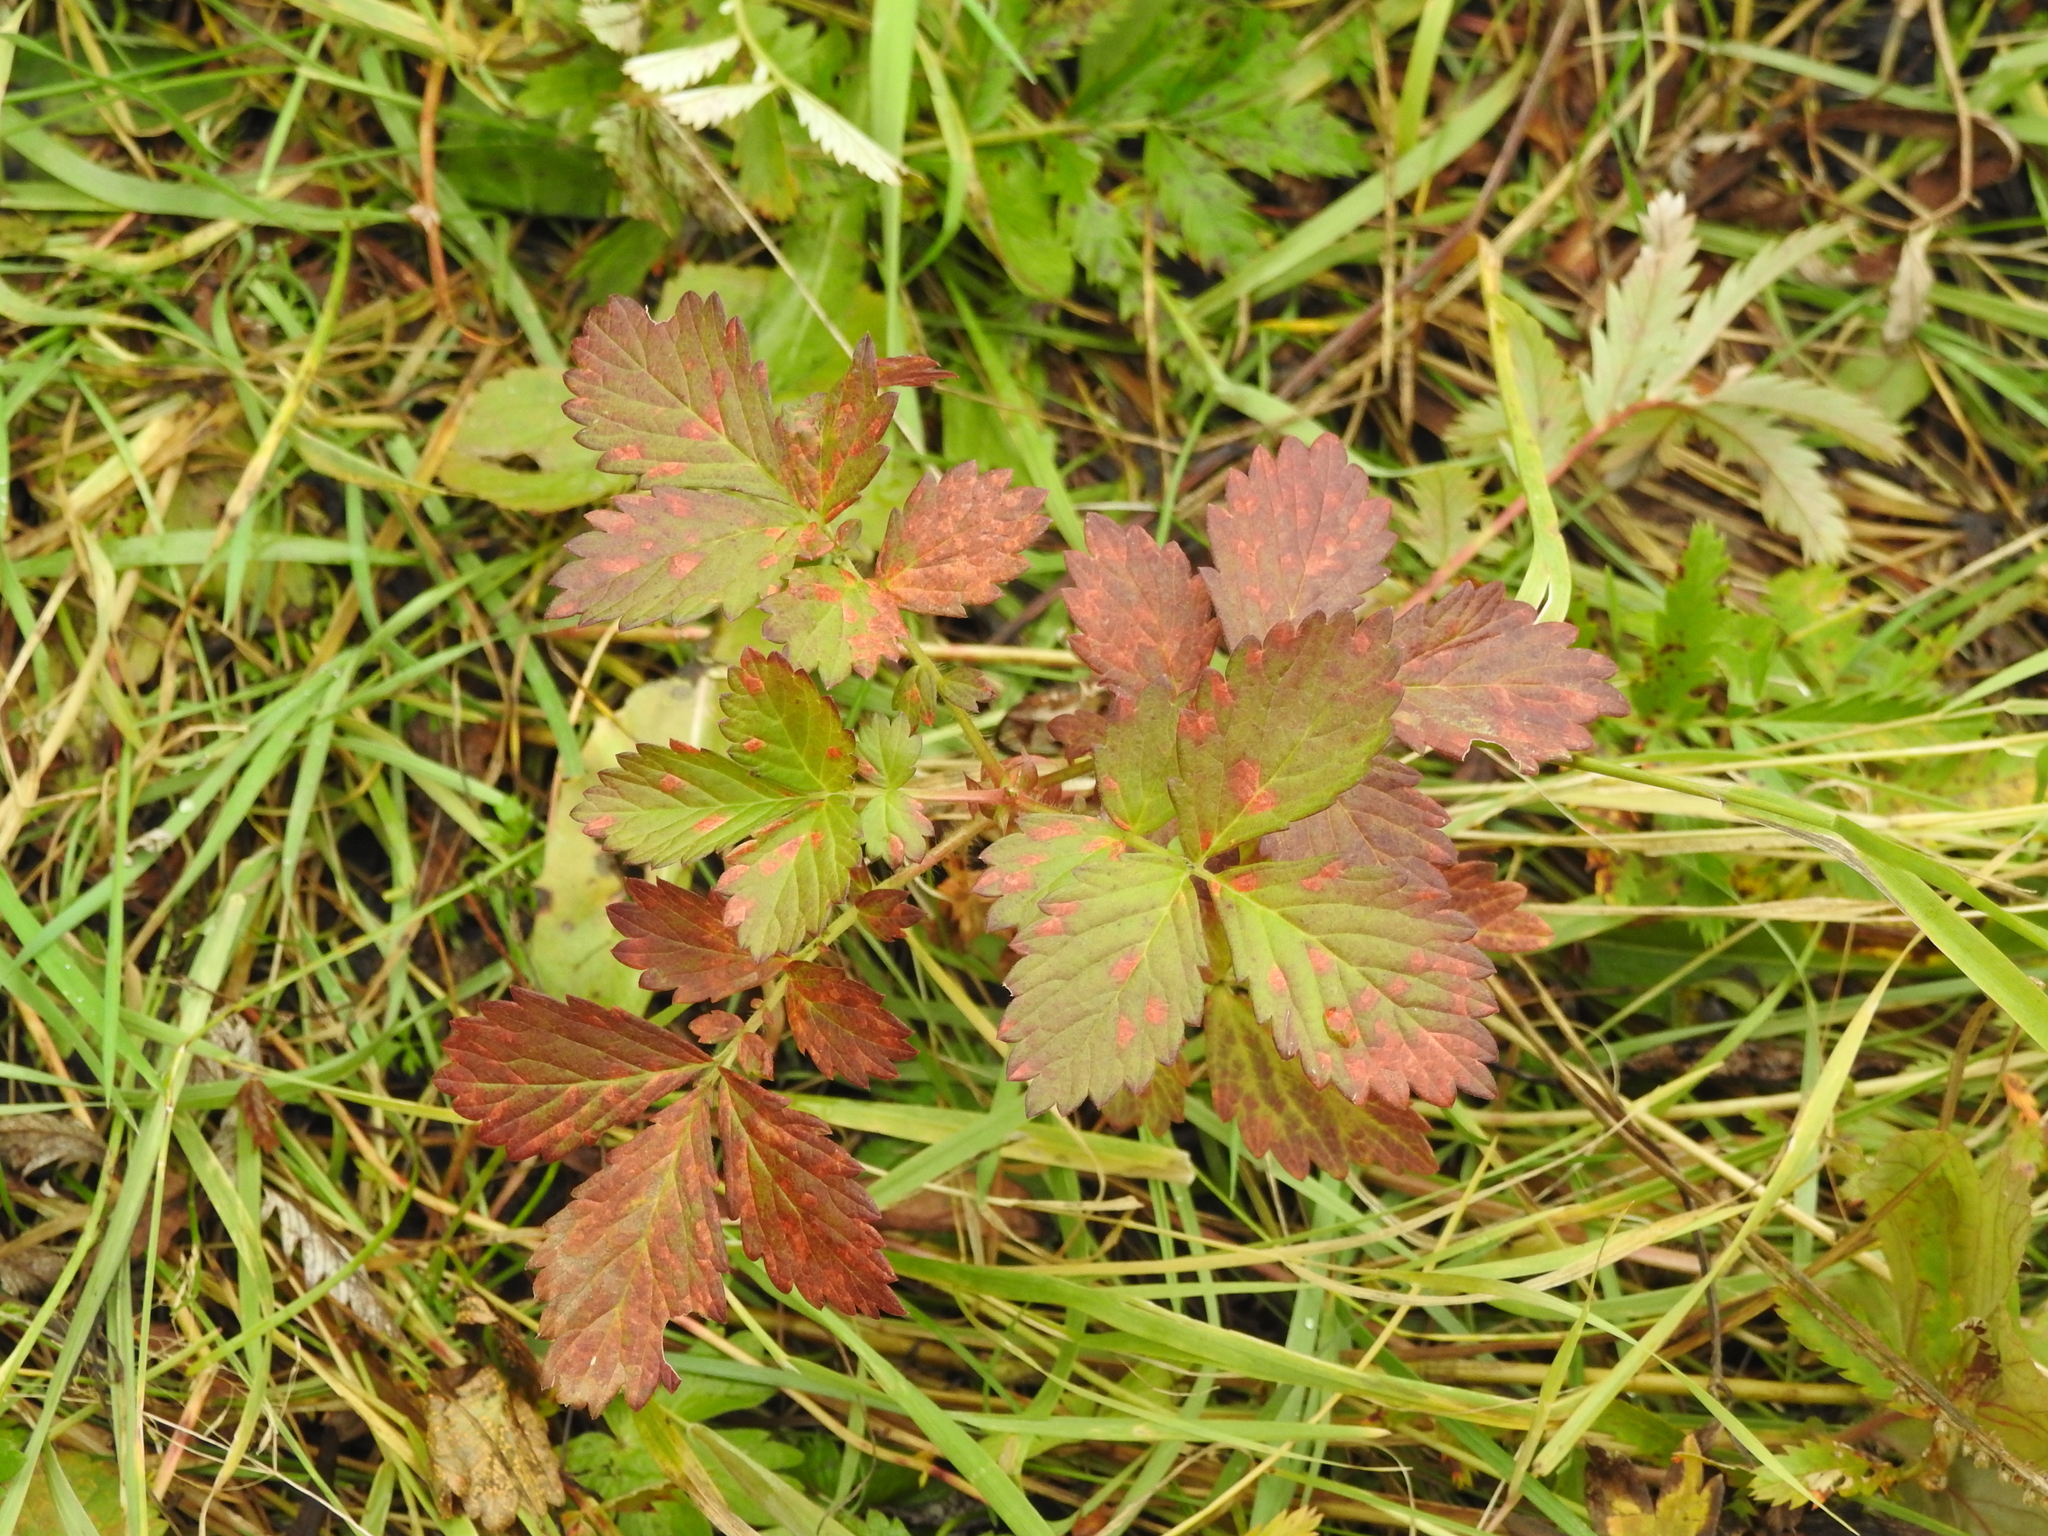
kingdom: Plantae
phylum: Tracheophyta
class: Magnoliopsida
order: Rosales
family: Rosaceae
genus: Agrimonia
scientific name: Agrimonia pilosa
